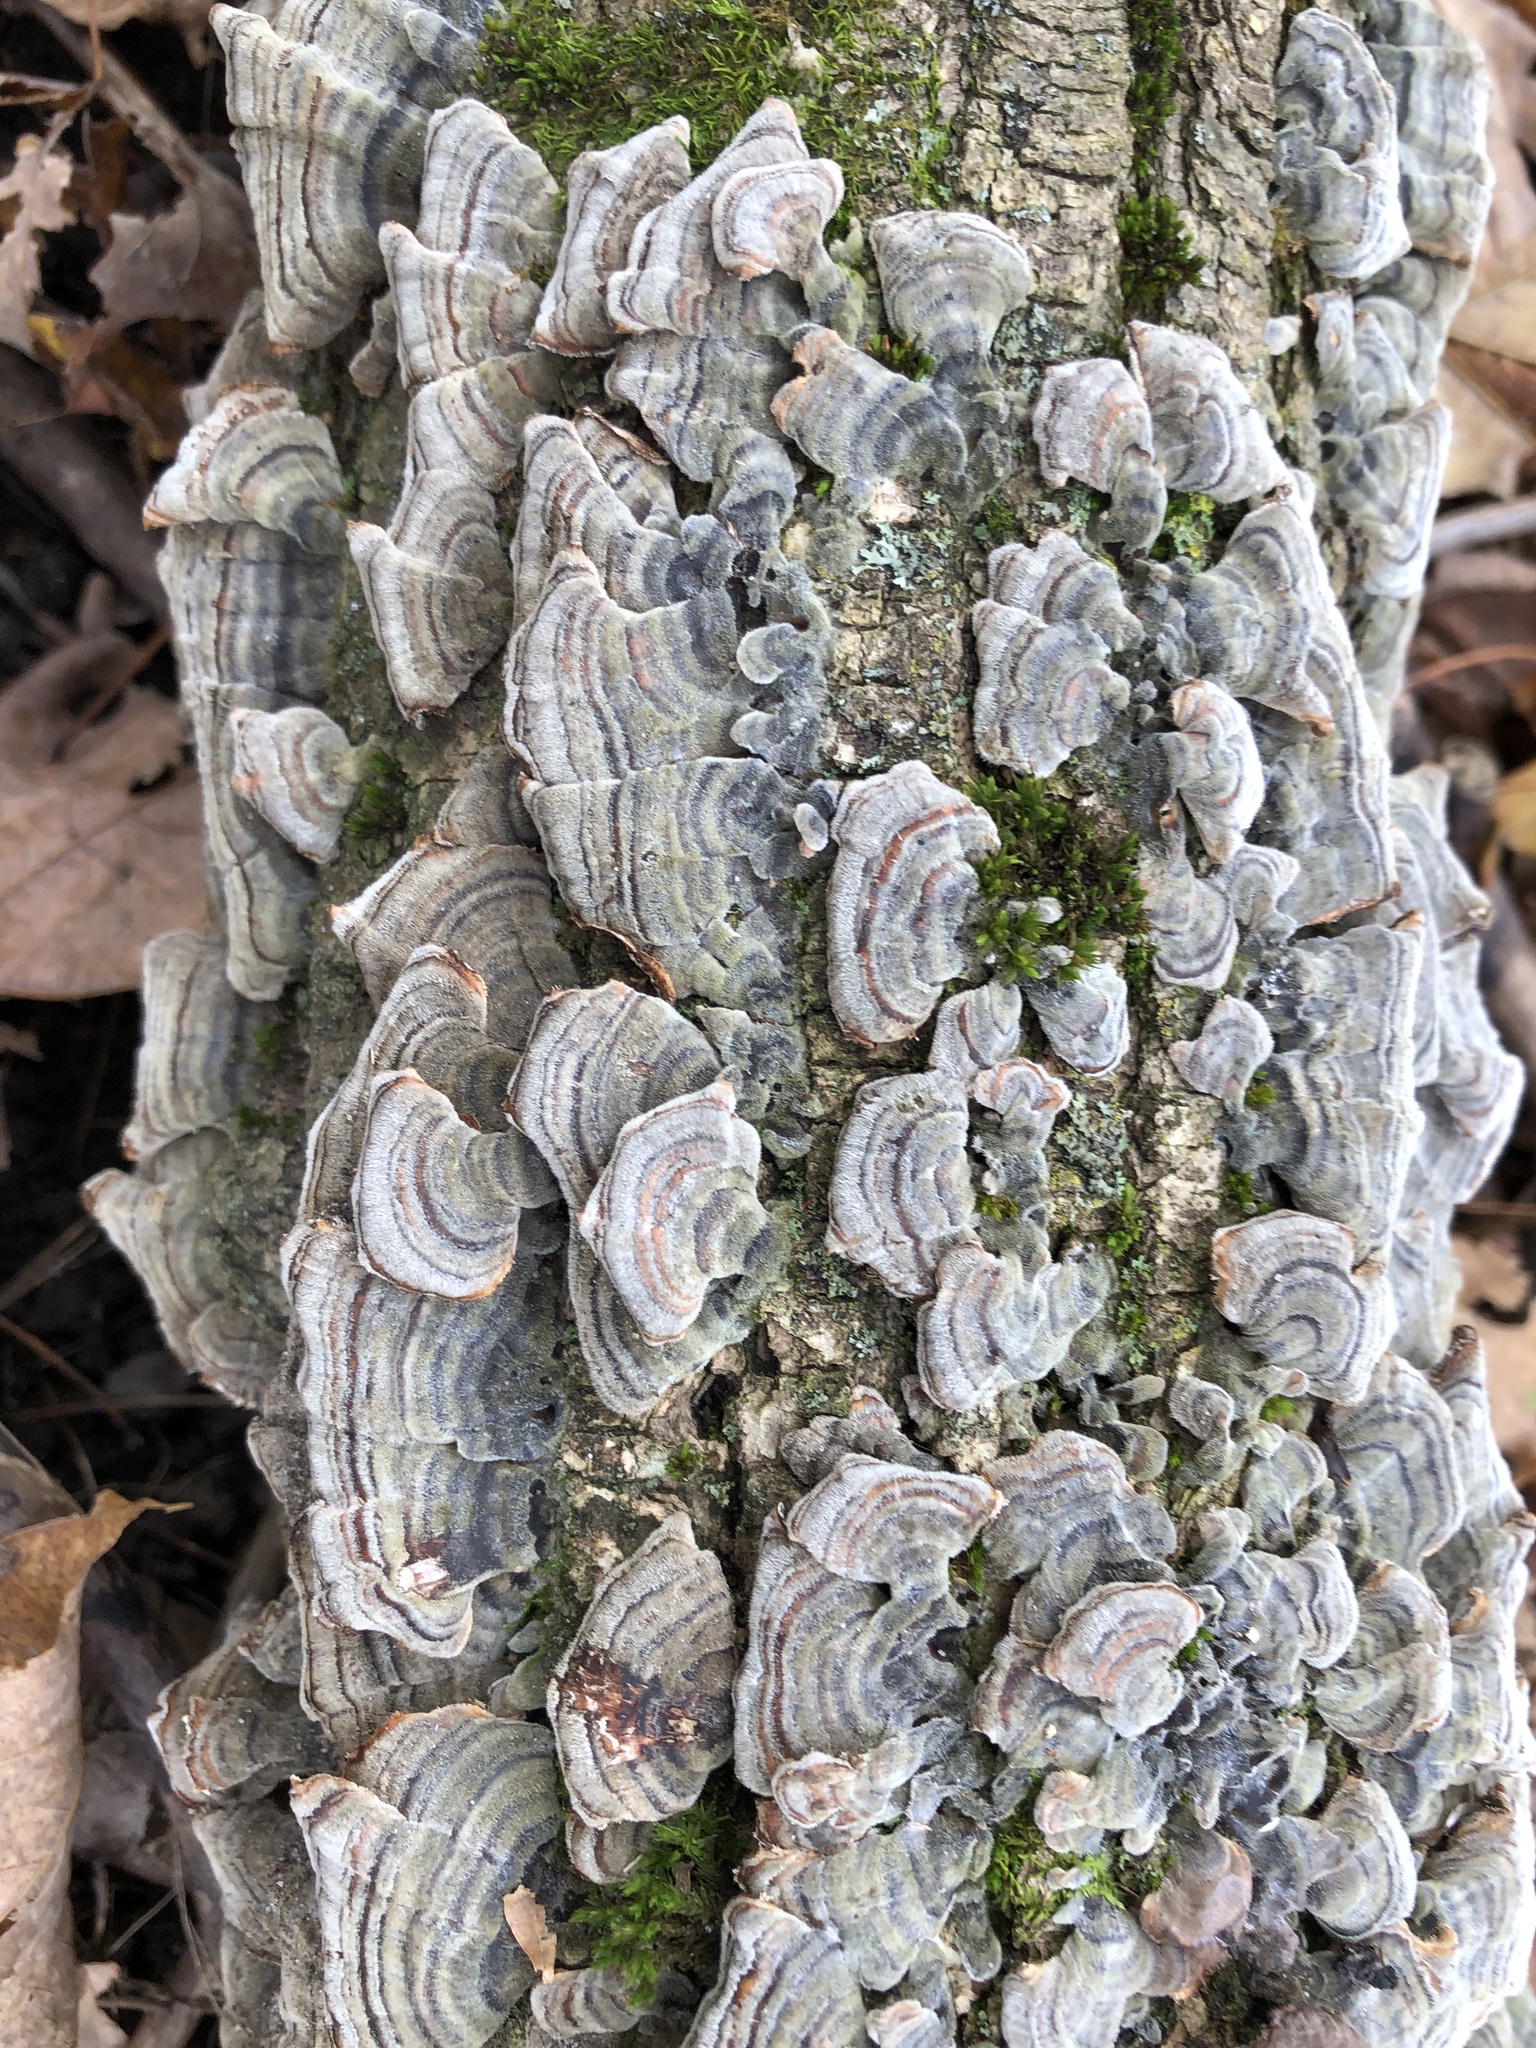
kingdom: Fungi
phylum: Basidiomycota
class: Agaricomycetes
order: Polyporales
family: Polyporaceae
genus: Trametes
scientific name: Trametes versicolor
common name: Turkeytail
